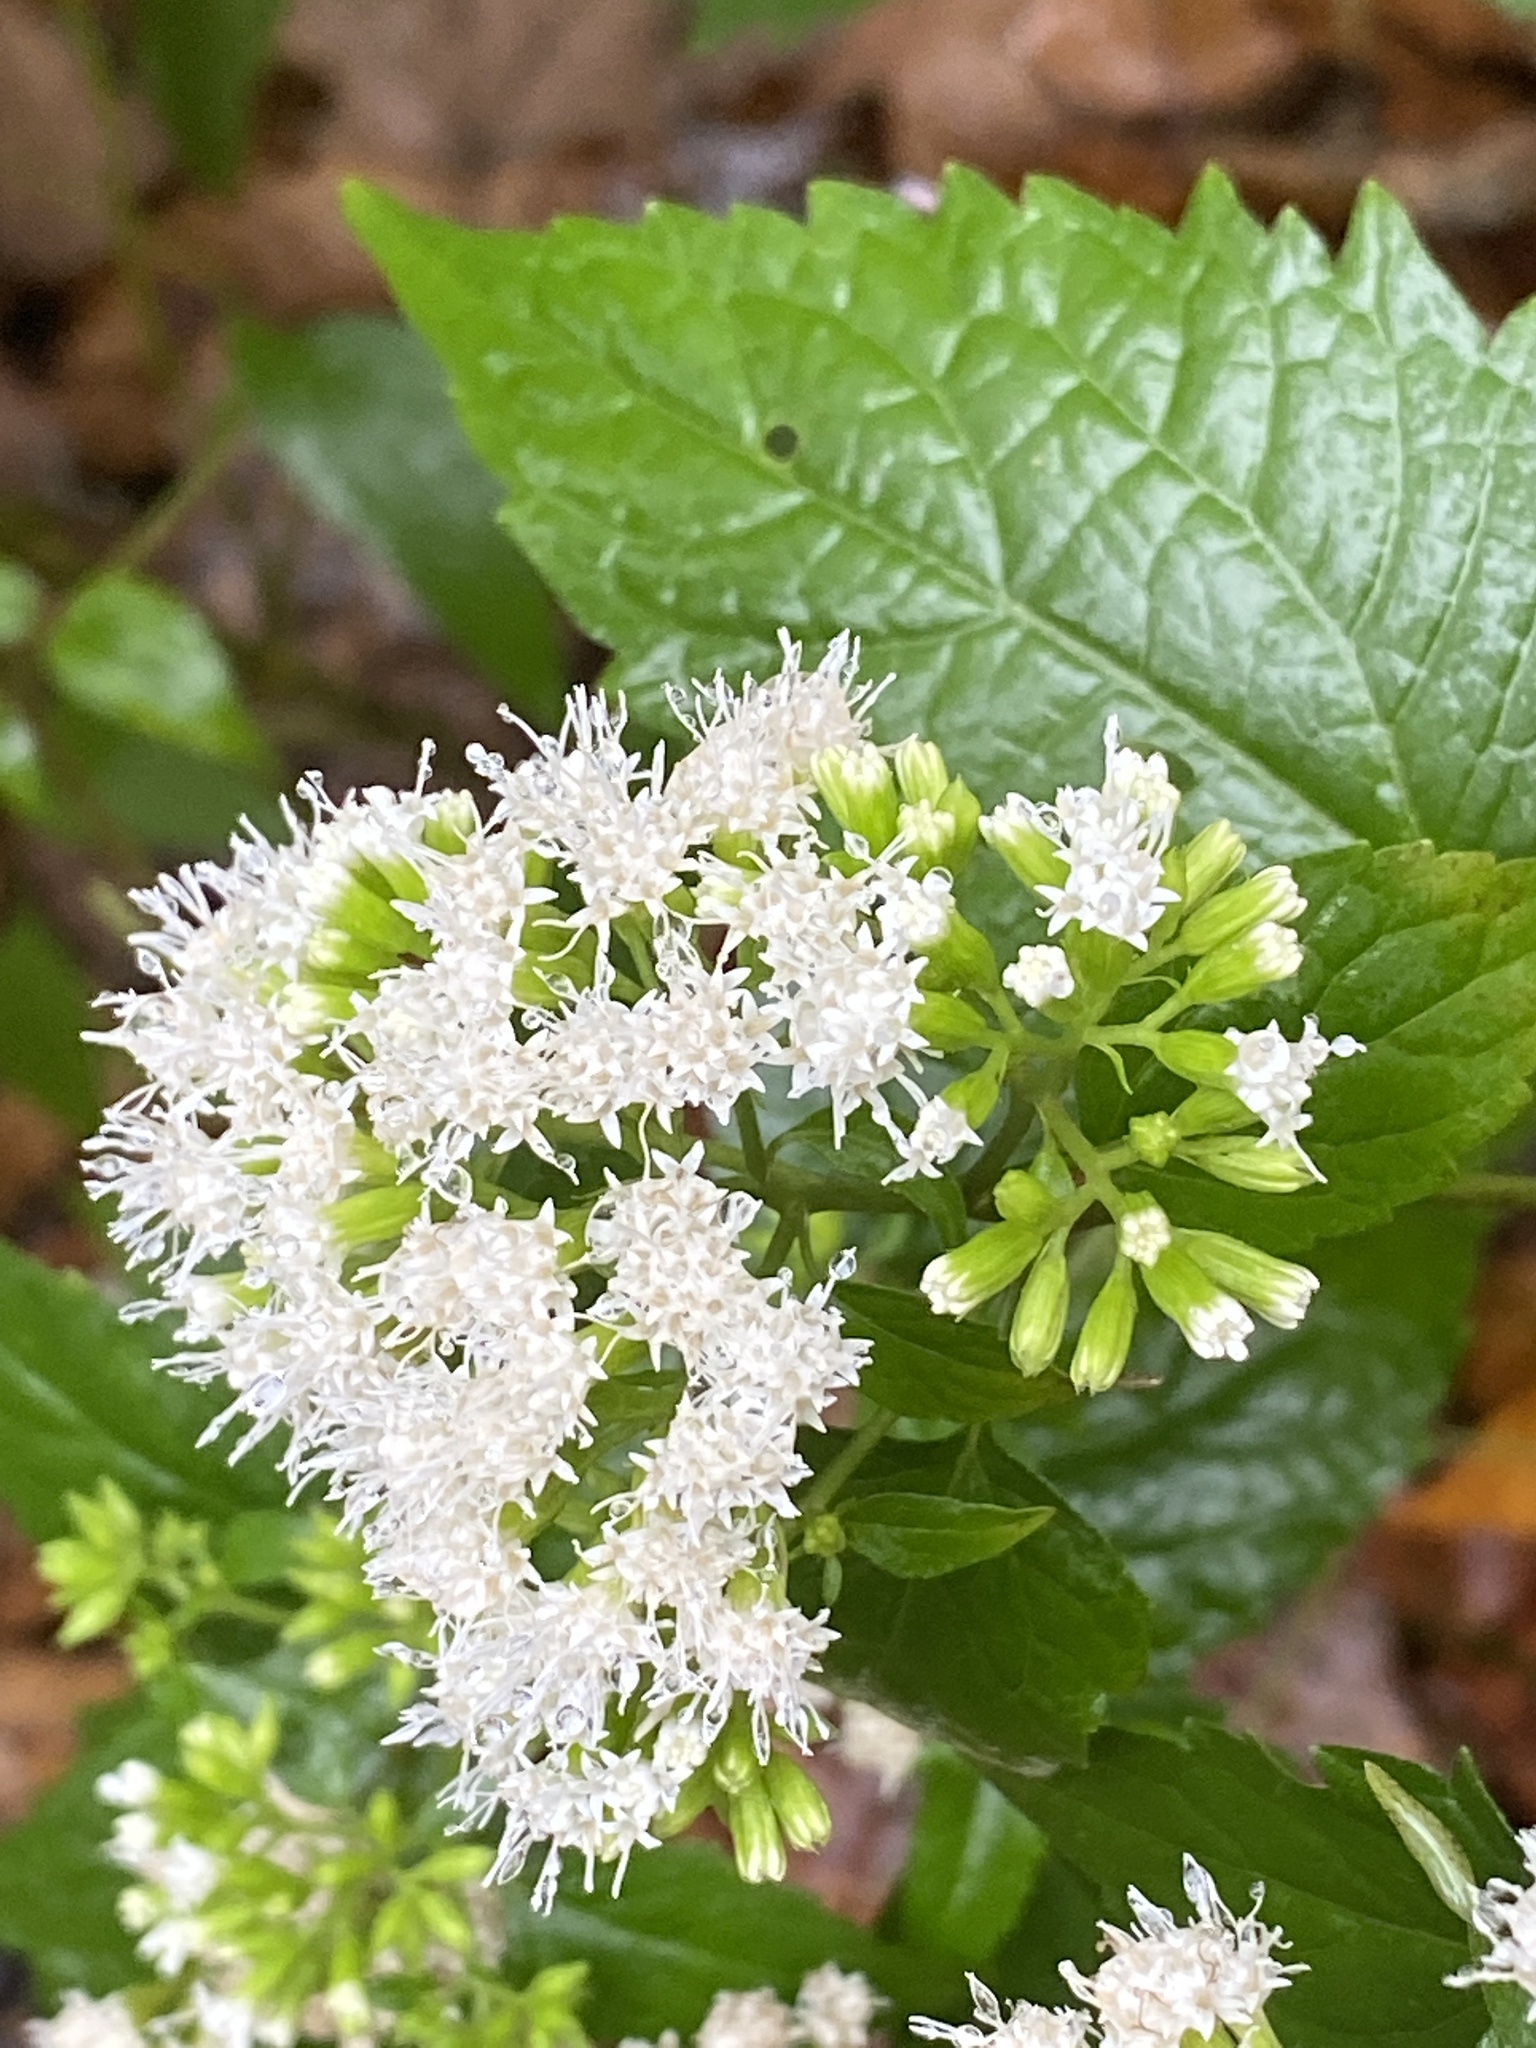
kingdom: Plantae
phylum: Tracheophyta
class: Magnoliopsida
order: Asterales
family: Asteraceae
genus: Ageratina
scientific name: Ageratina altissima
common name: White snakeroot
